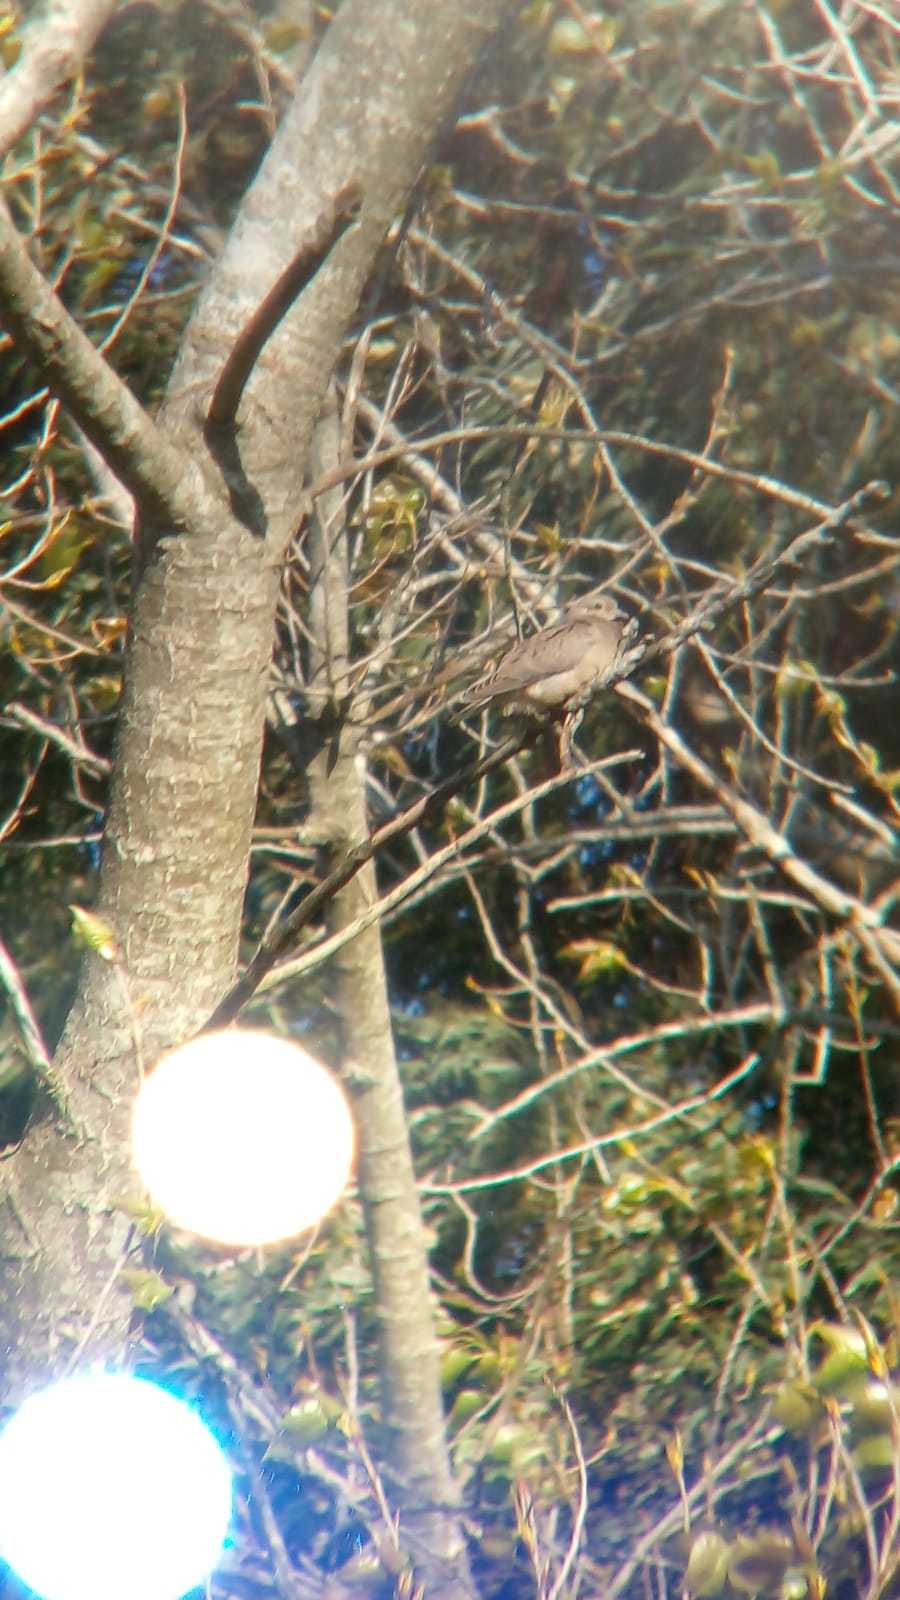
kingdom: Animalia
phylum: Chordata
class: Aves
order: Columbiformes
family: Columbidae
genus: Zenaida
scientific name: Zenaida auriculata
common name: Eared dove
